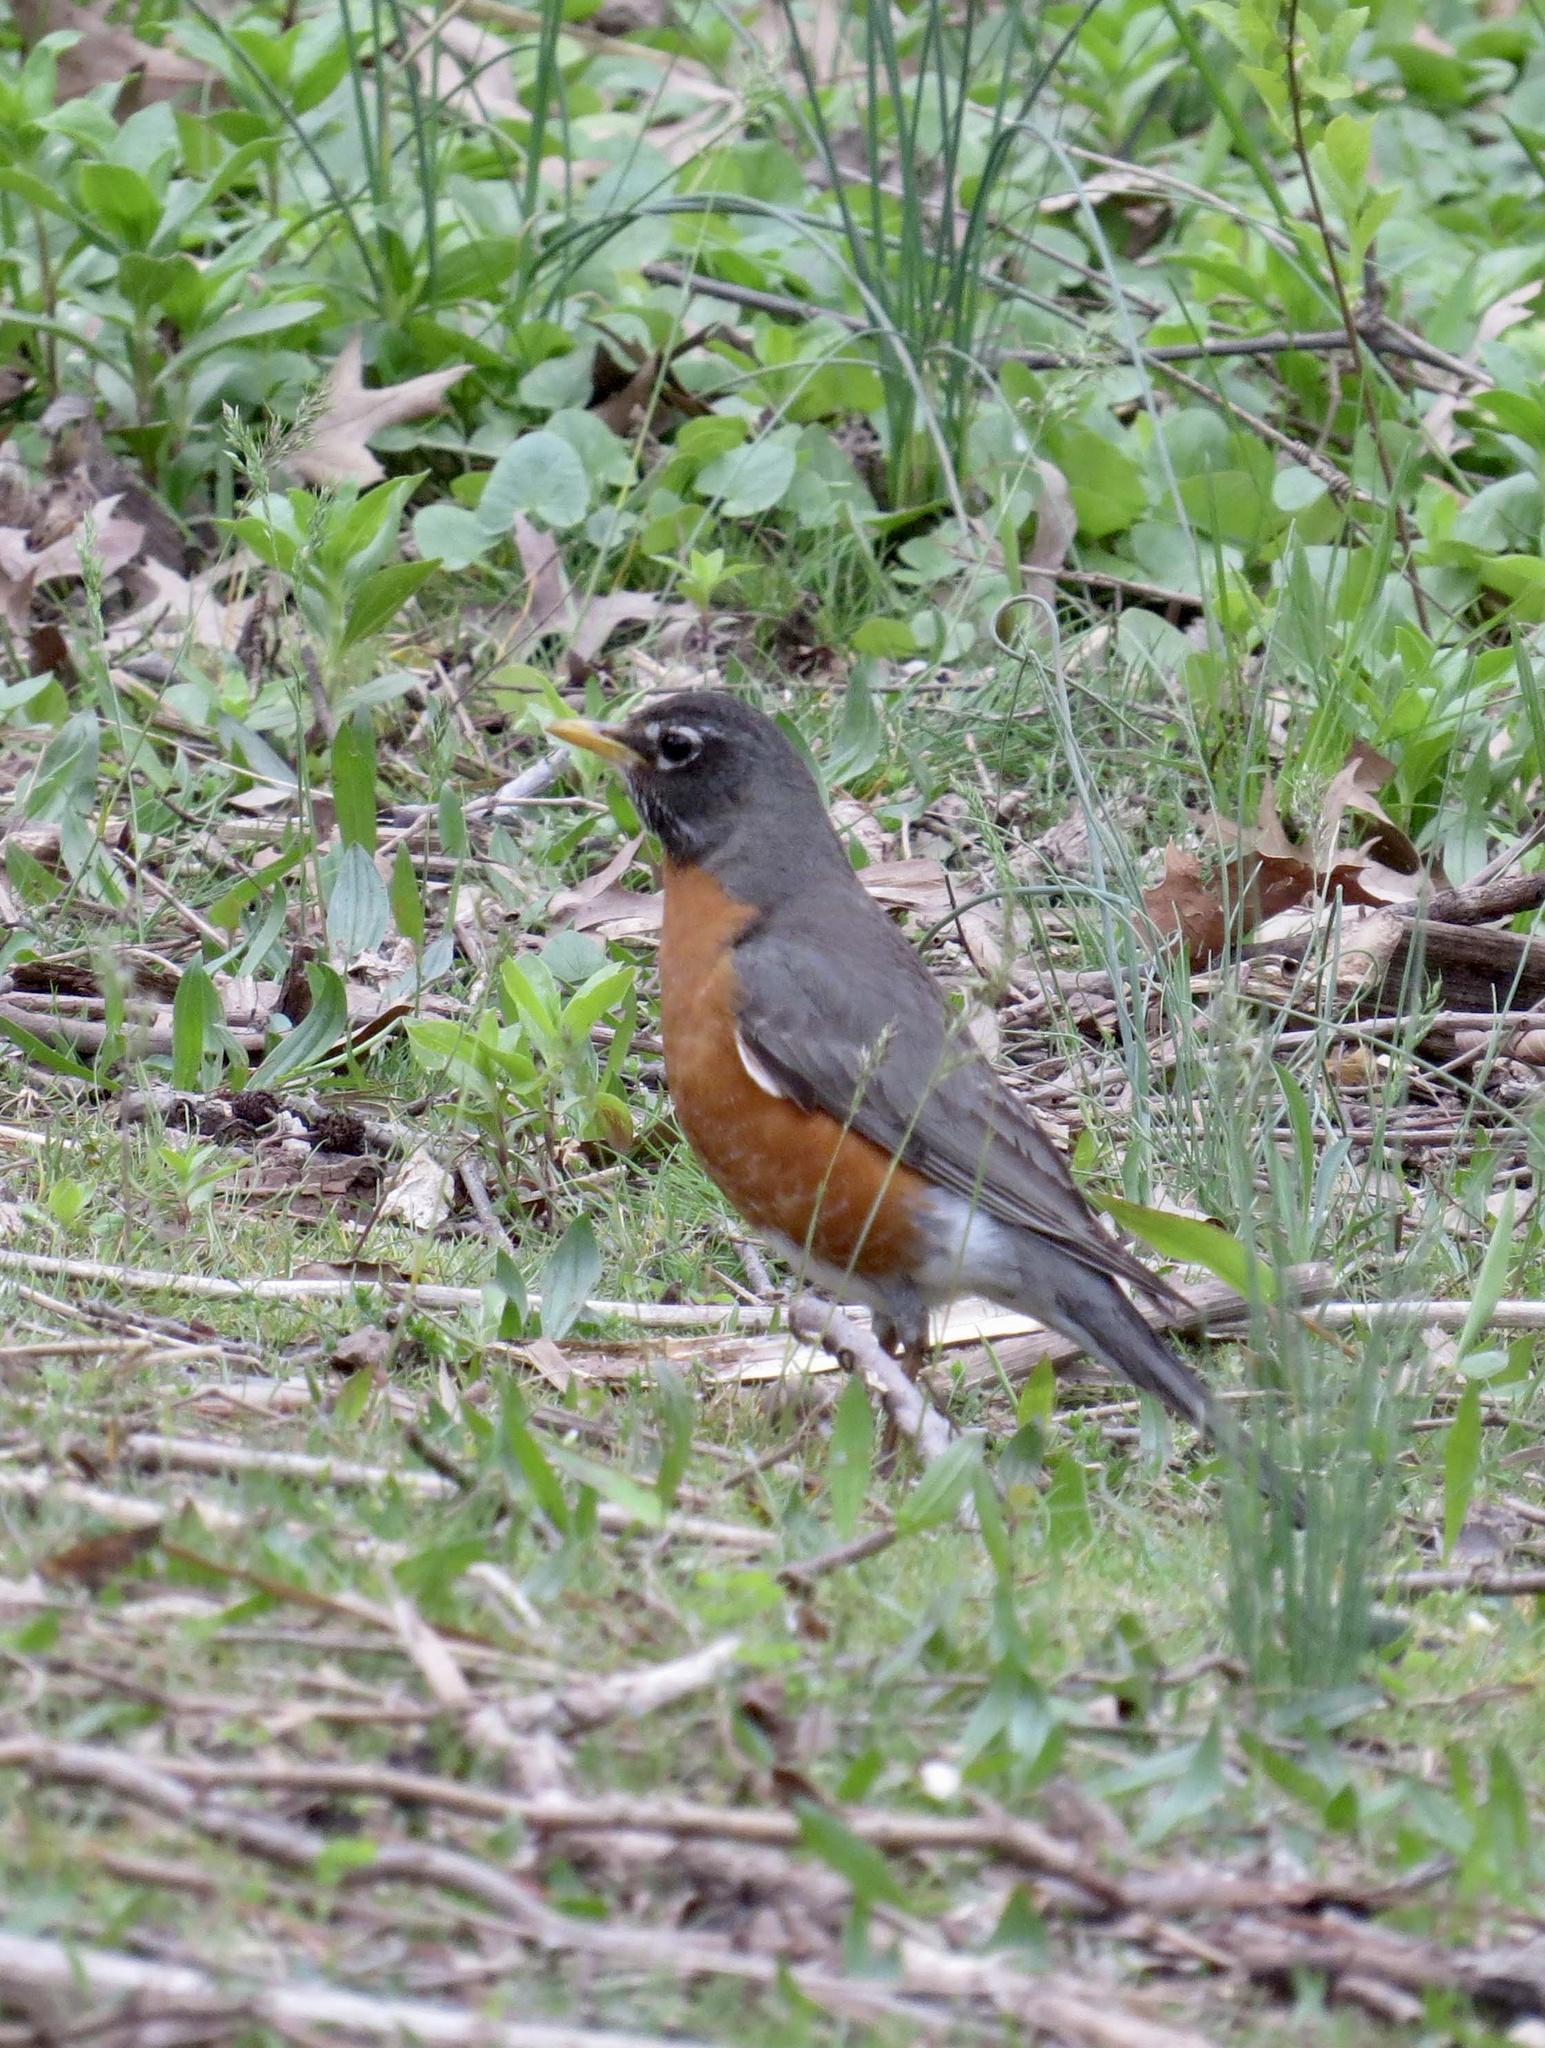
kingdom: Animalia
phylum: Chordata
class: Aves
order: Passeriformes
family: Turdidae
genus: Turdus
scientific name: Turdus migratorius
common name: American robin
